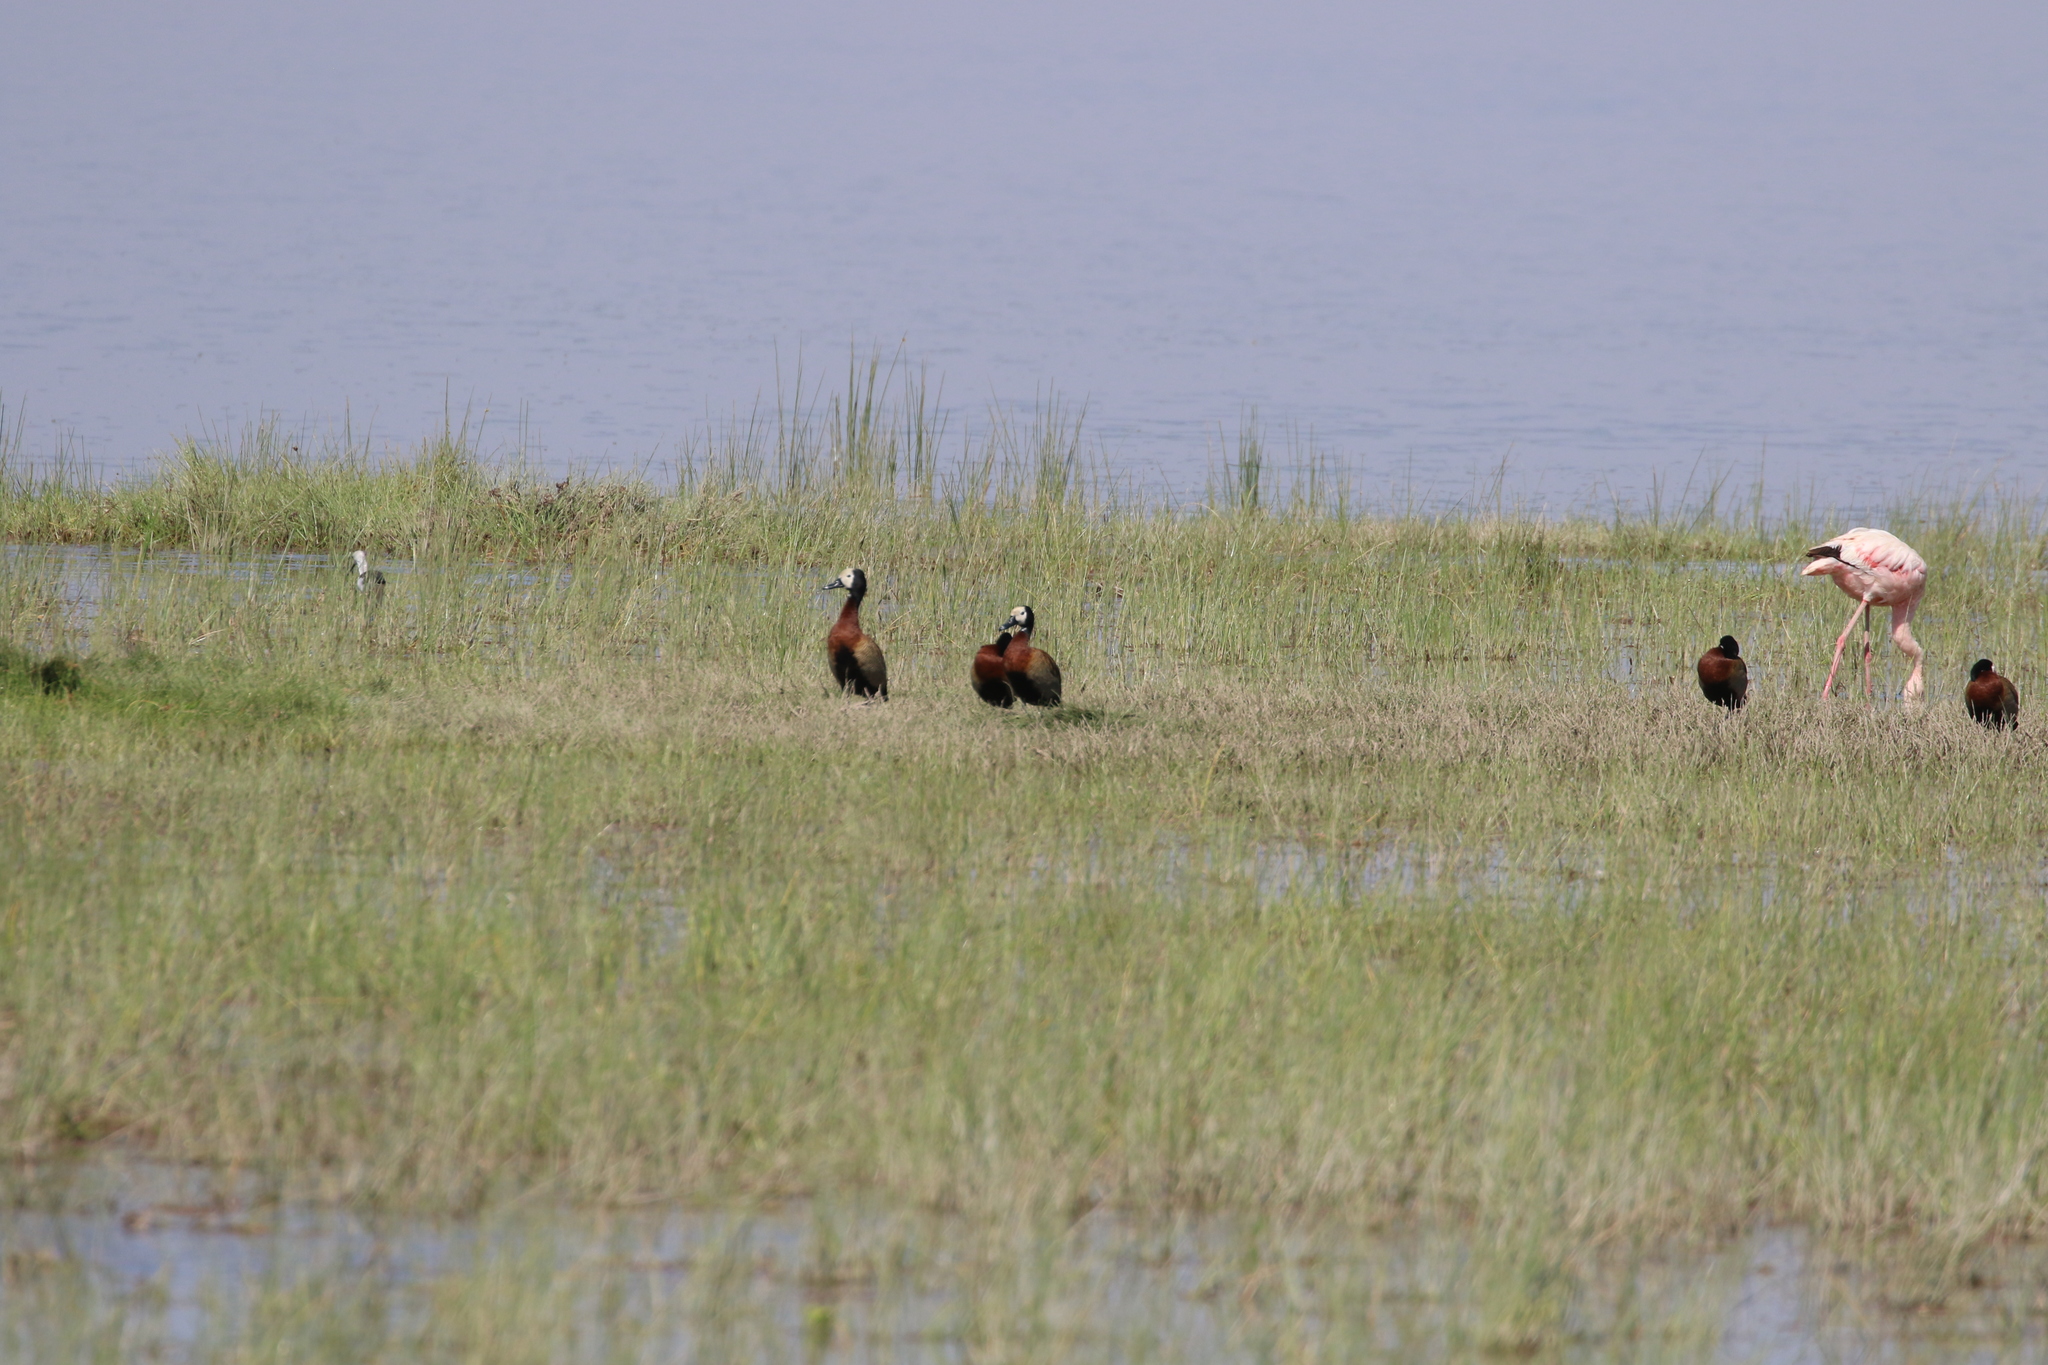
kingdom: Animalia
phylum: Chordata
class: Aves
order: Anseriformes
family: Anatidae
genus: Dendrocygna
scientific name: Dendrocygna viduata
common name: White-faced whistling duck
